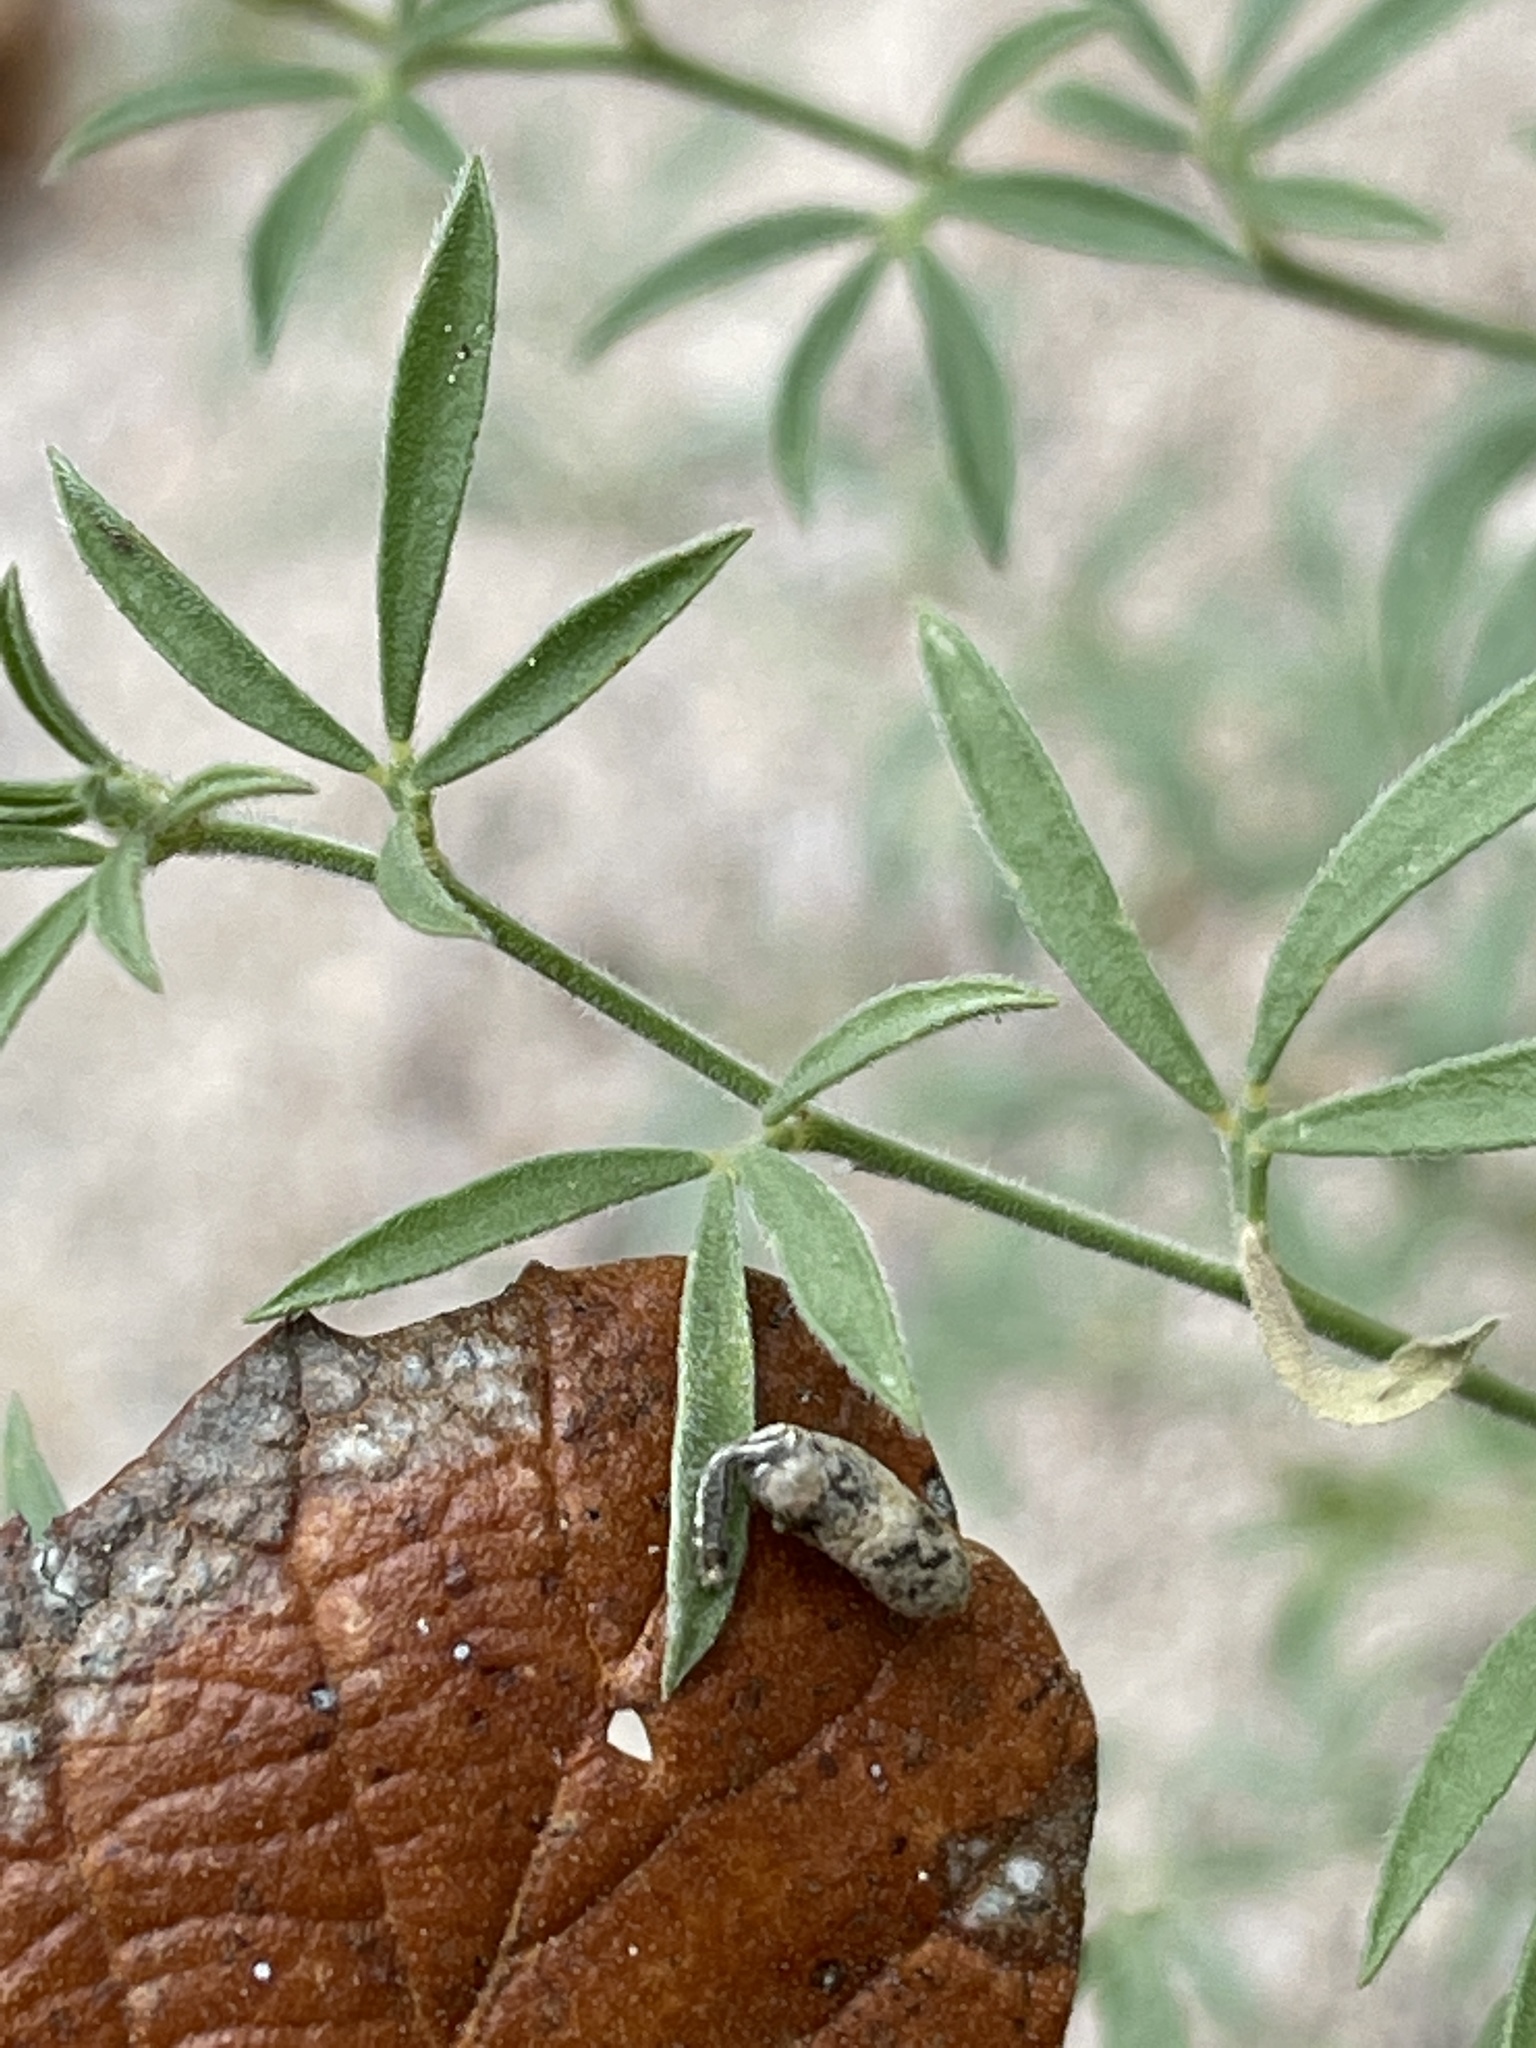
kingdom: Animalia
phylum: Arthropoda
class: Insecta
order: Hymenoptera
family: Ichneumonidae
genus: Campopleginae
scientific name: Campopleginae
